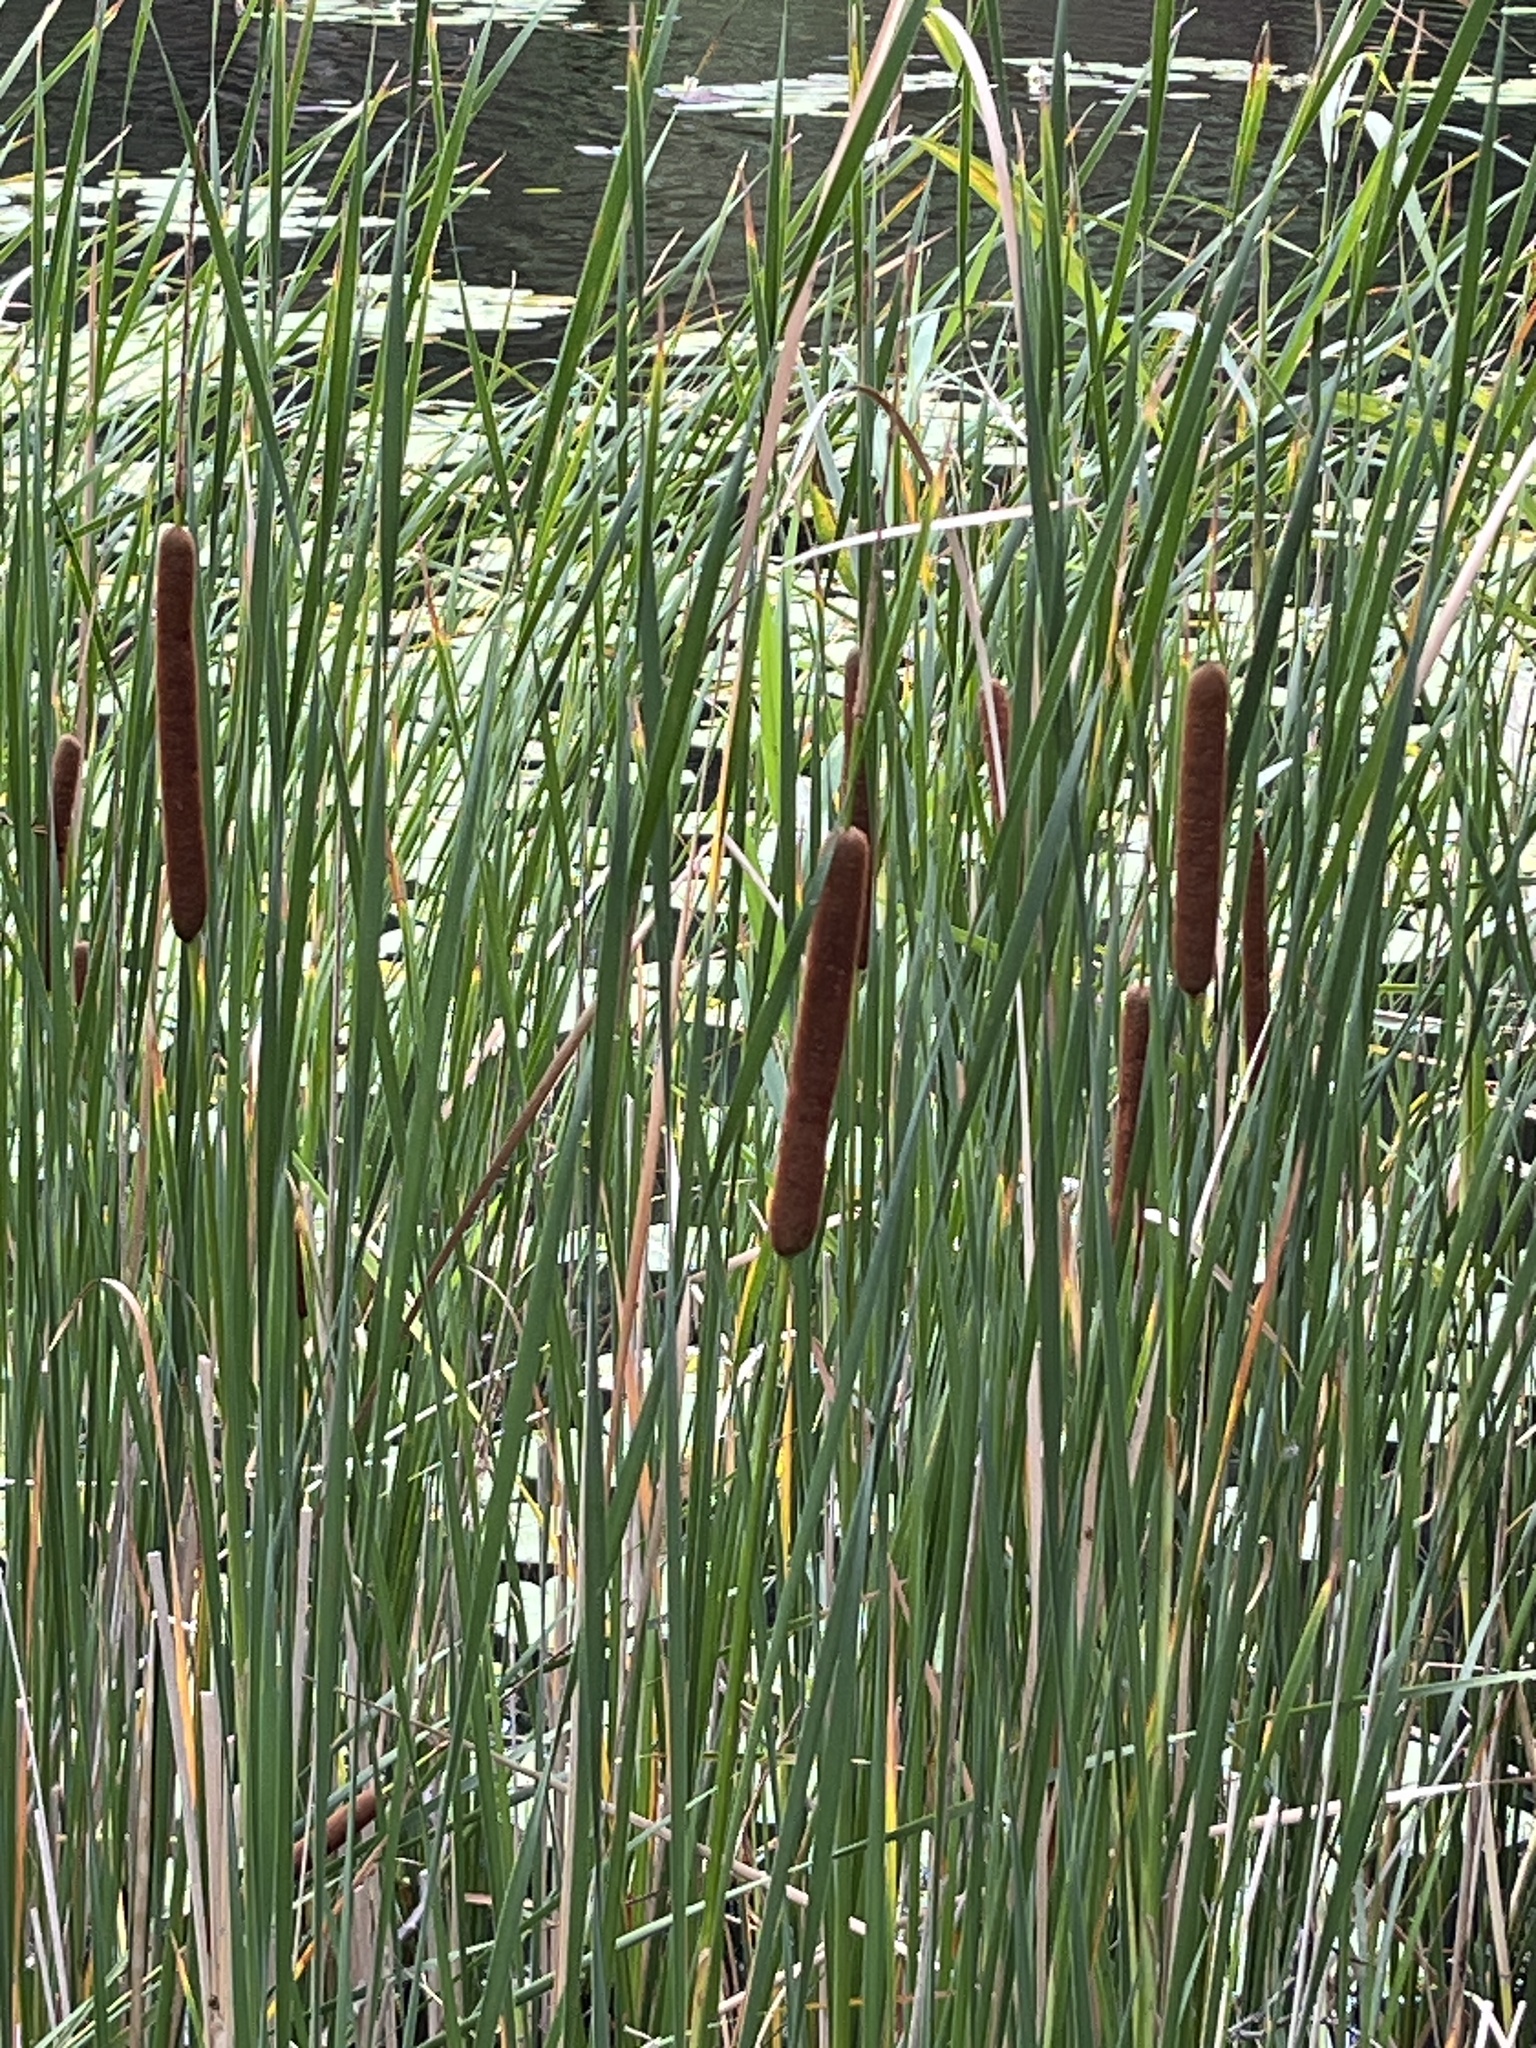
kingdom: Plantae
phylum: Tracheophyta
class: Liliopsida
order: Poales
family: Typhaceae
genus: Typha
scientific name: Typha angustifolia
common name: Lesser bulrush
